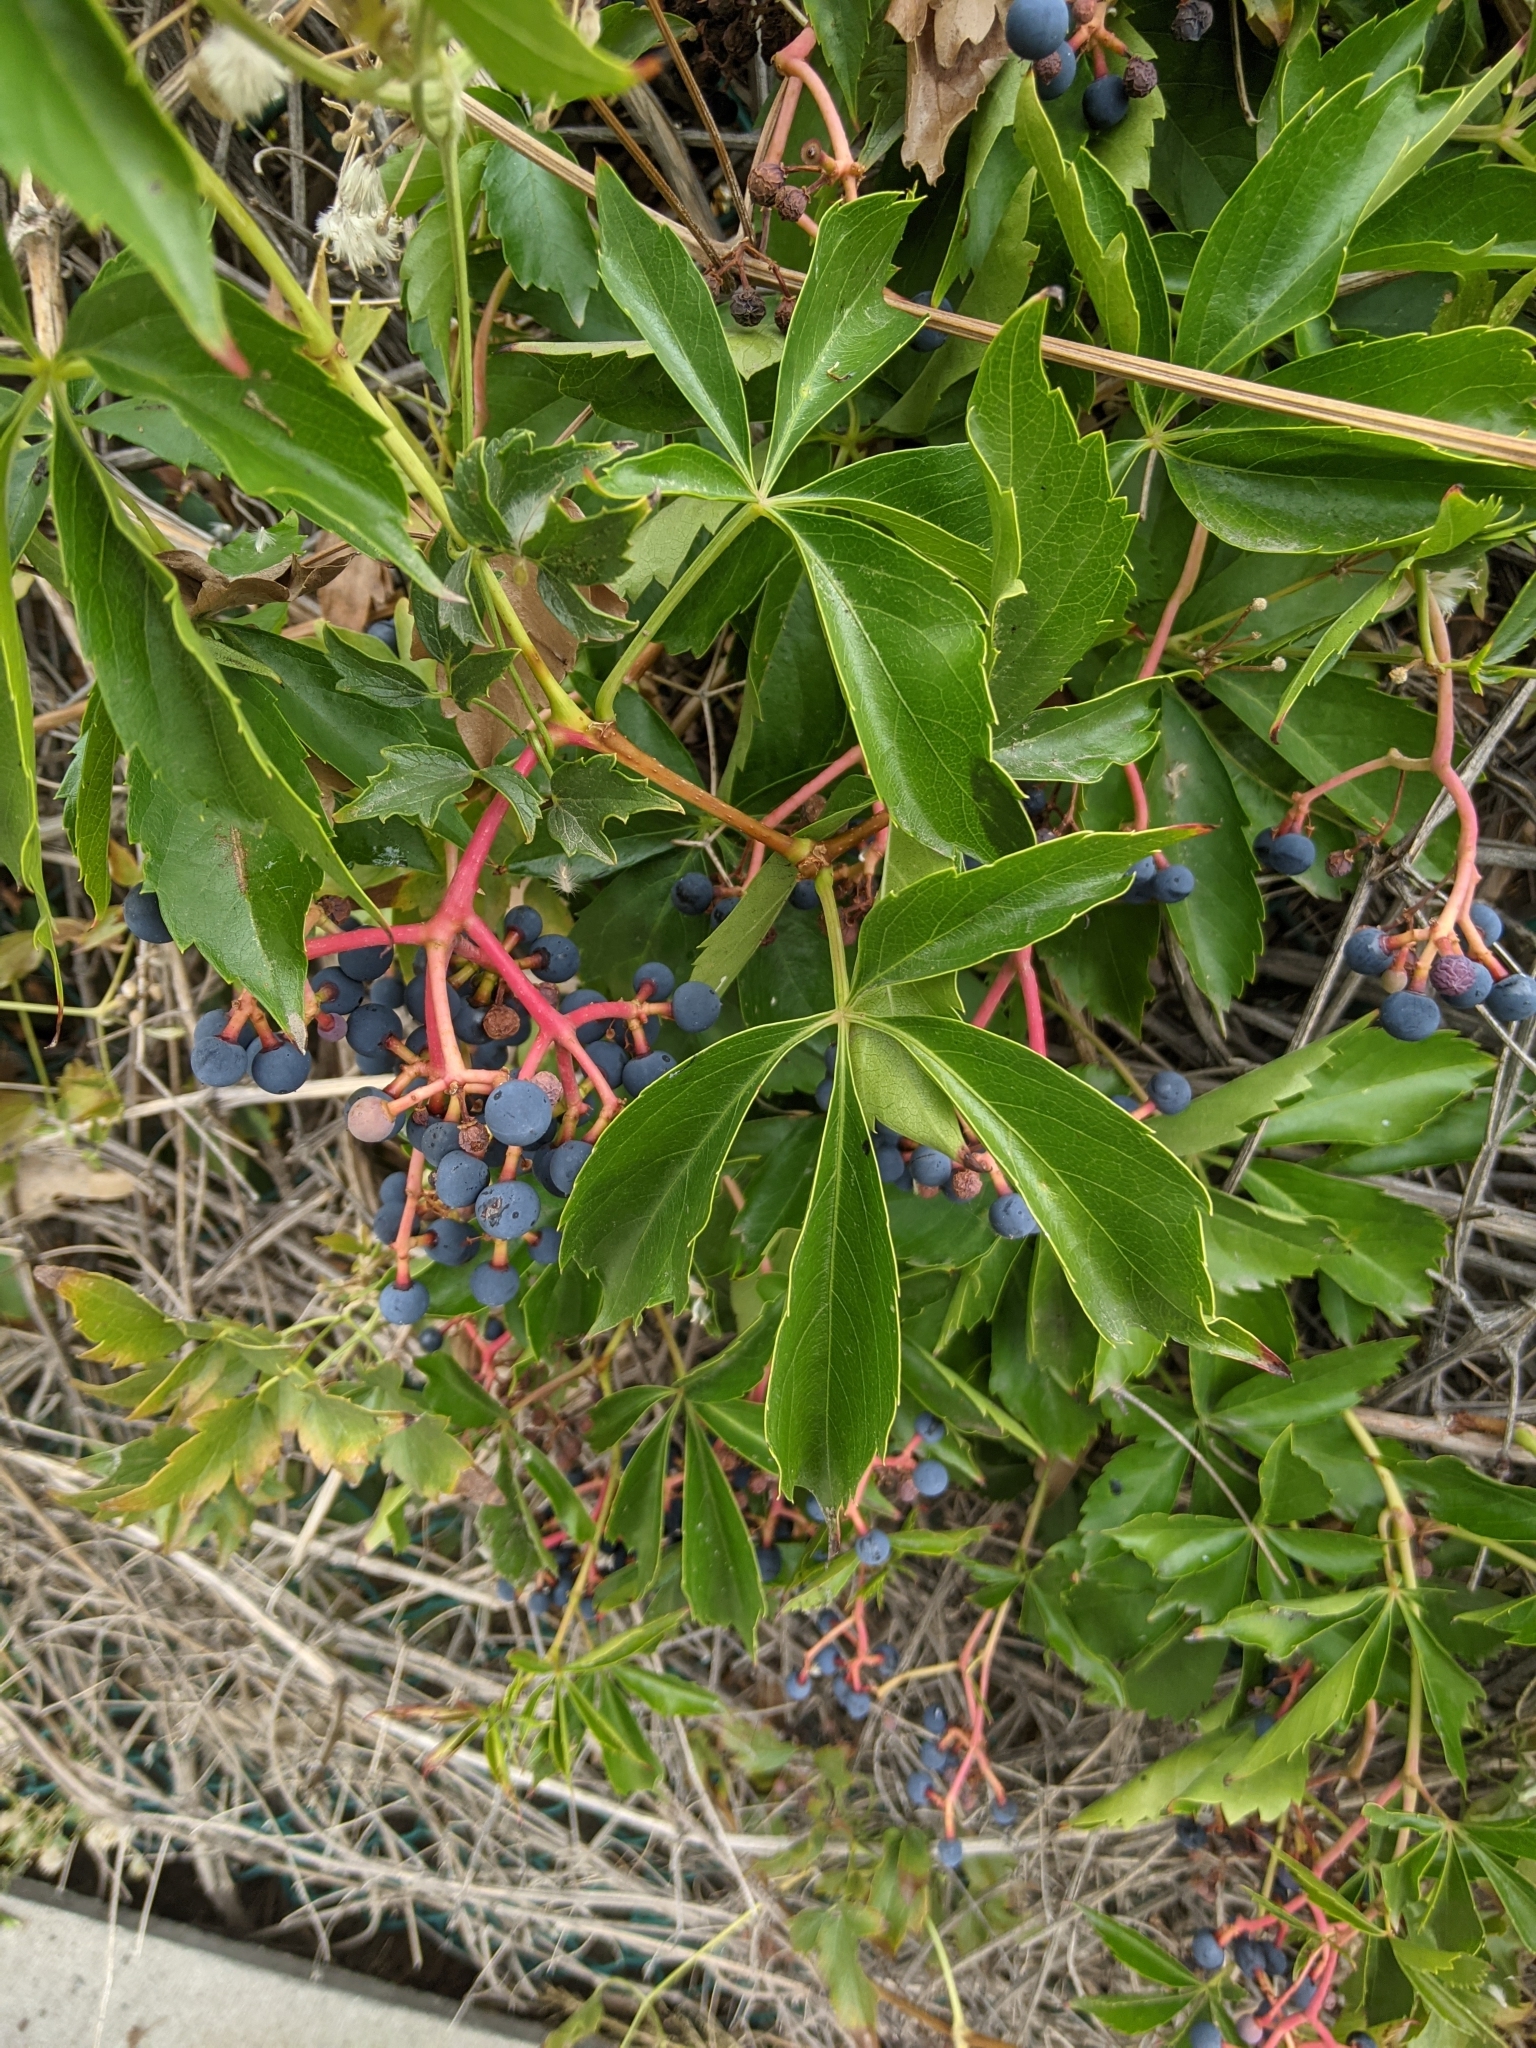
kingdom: Plantae
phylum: Tracheophyta
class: Magnoliopsida
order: Vitales
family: Vitaceae
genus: Parthenocissus
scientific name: Parthenocissus quinquefolia
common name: Virginia-creeper
